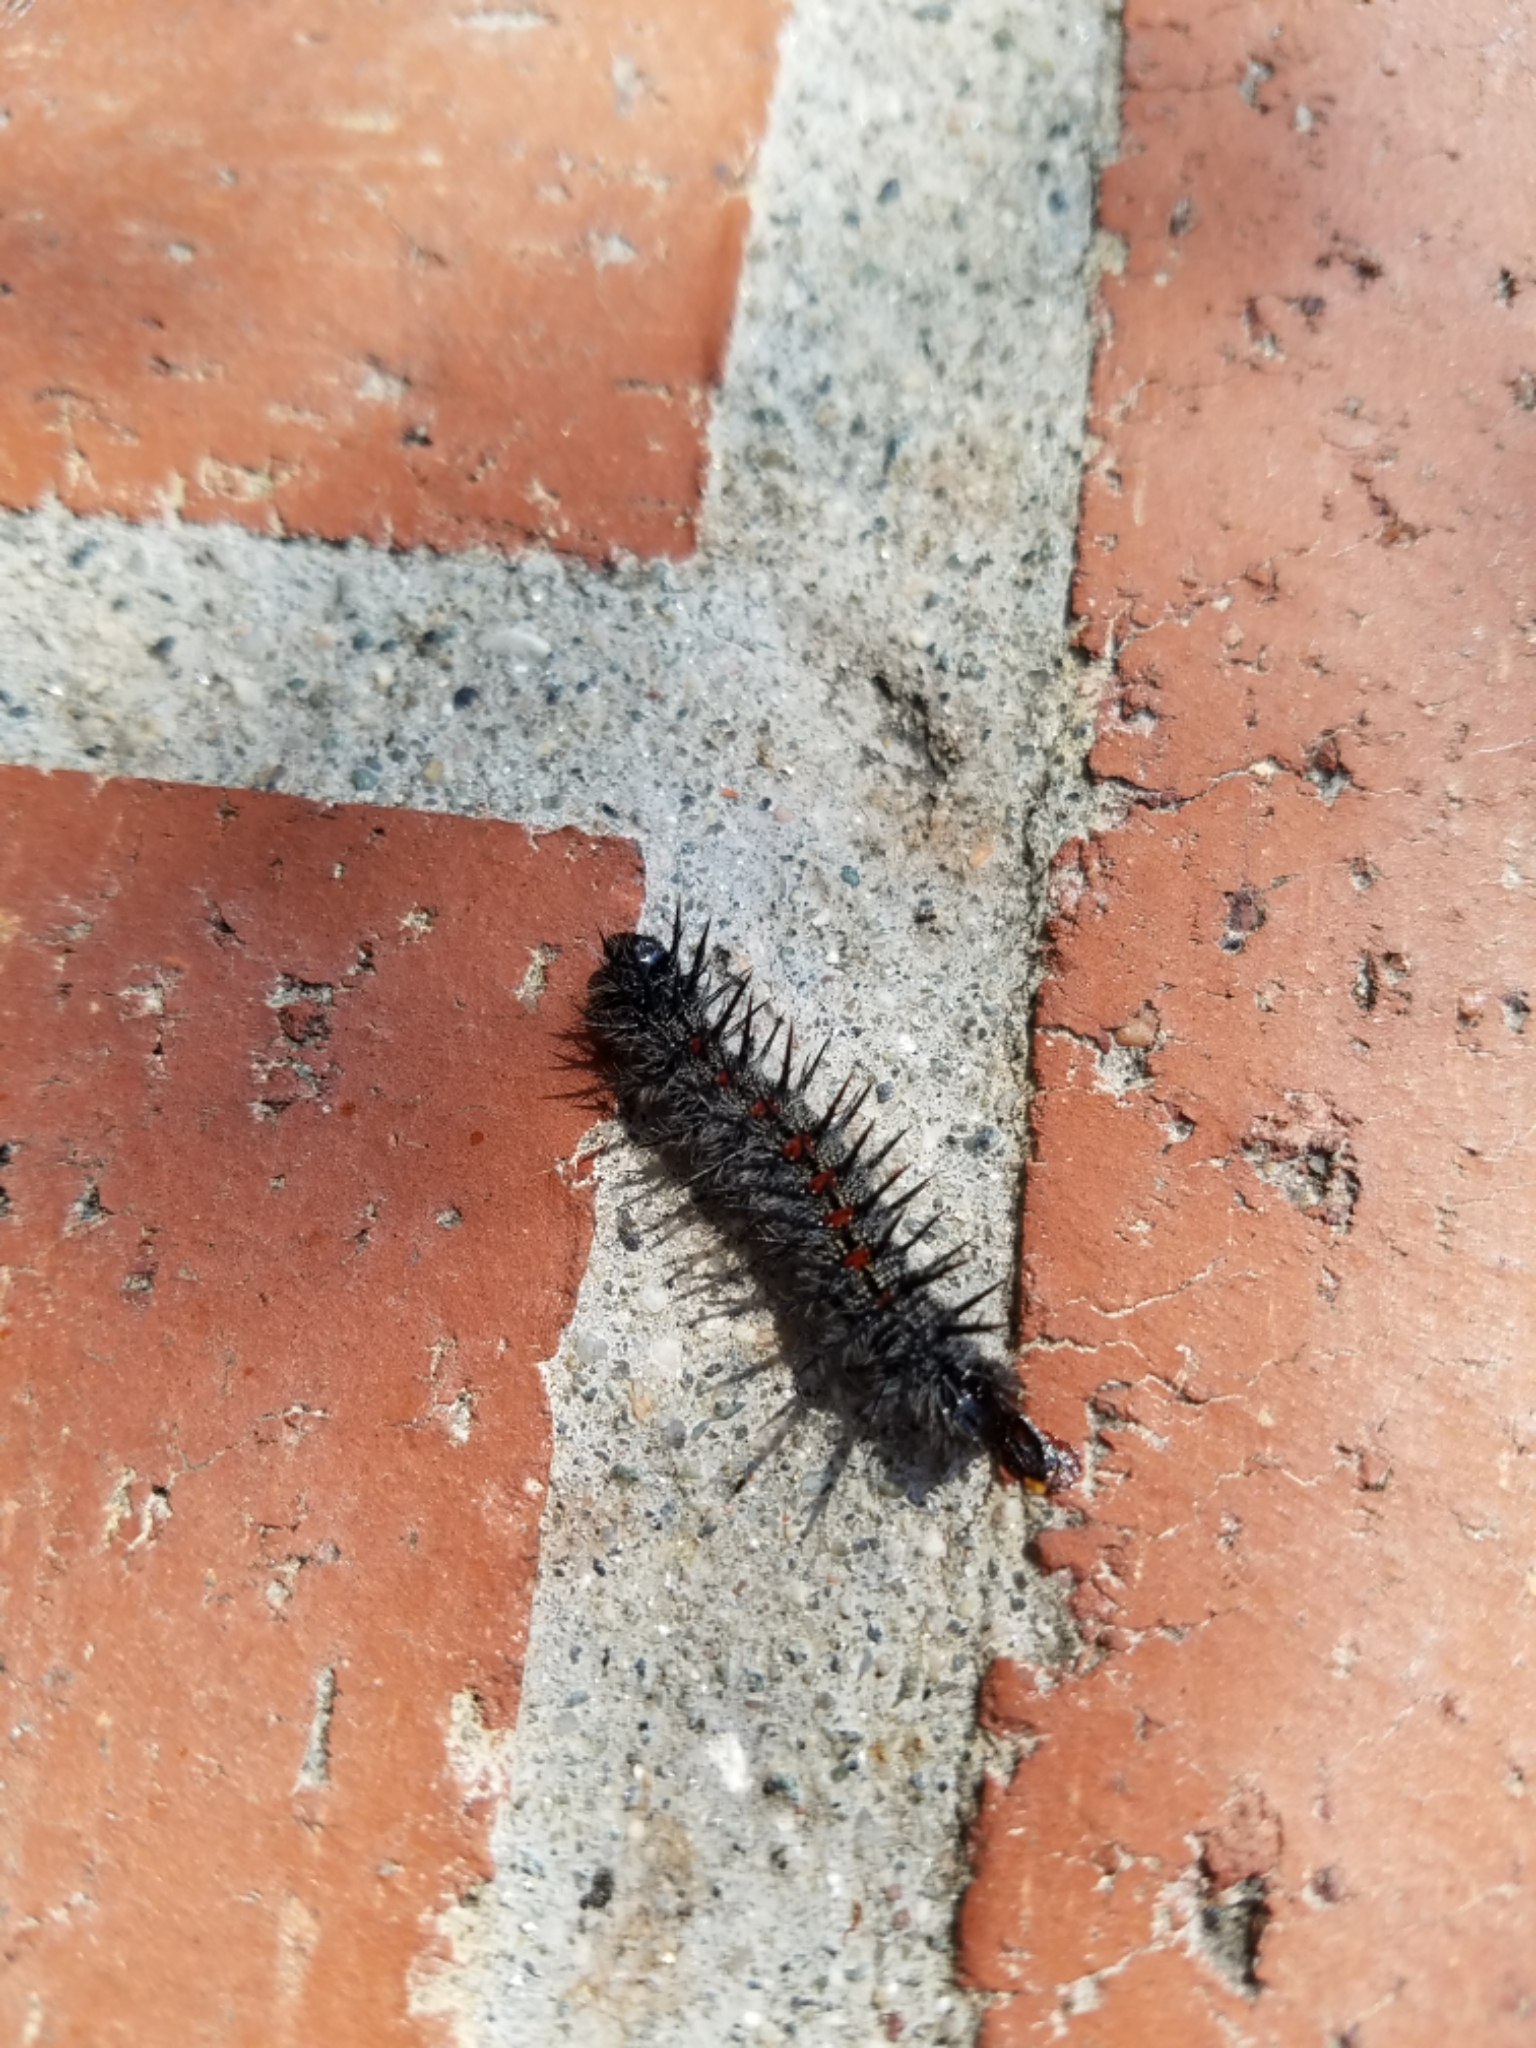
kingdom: Animalia
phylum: Arthropoda
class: Insecta
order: Lepidoptera
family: Nymphalidae
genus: Nymphalis
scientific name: Nymphalis antiopa
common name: Camberwell beauty
